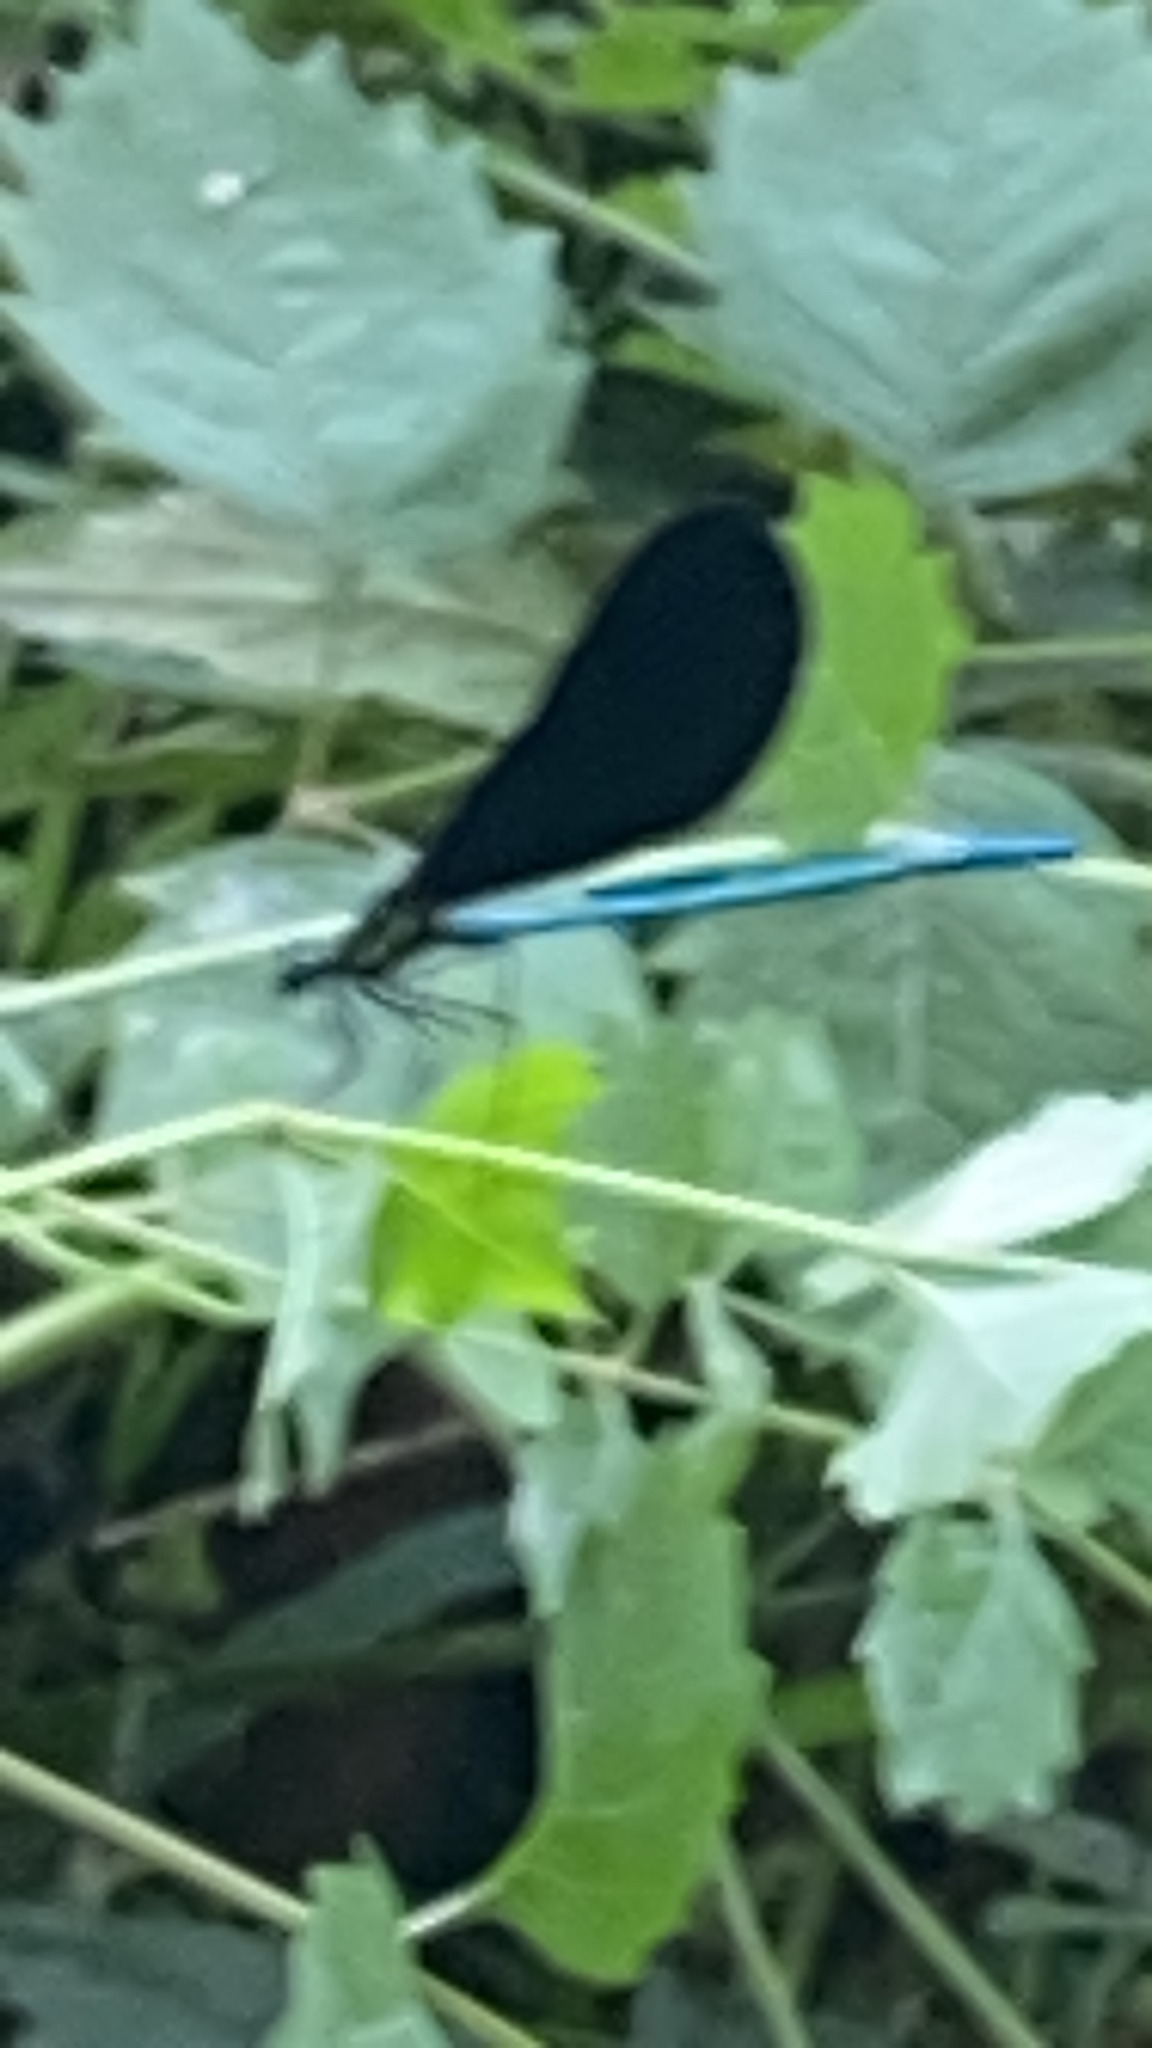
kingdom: Animalia
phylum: Arthropoda
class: Insecta
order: Odonata
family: Calopterygidae
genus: Calopteryx
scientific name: Calopteryx maculata
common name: Ebony jewelwing
